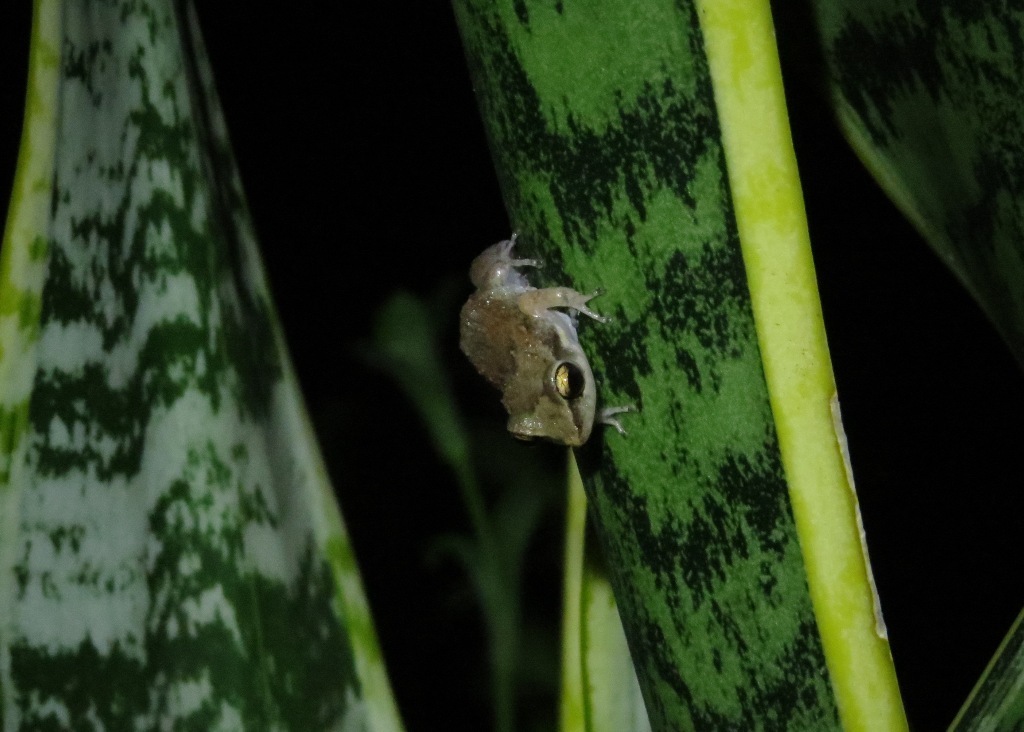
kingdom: Animalia
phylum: Chordata
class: Amphibia
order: Anura
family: Eleutherodactylidae
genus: Eleutherodactylus
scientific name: Eleutherodactylus johnstonei
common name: Johnstone's robber frog
